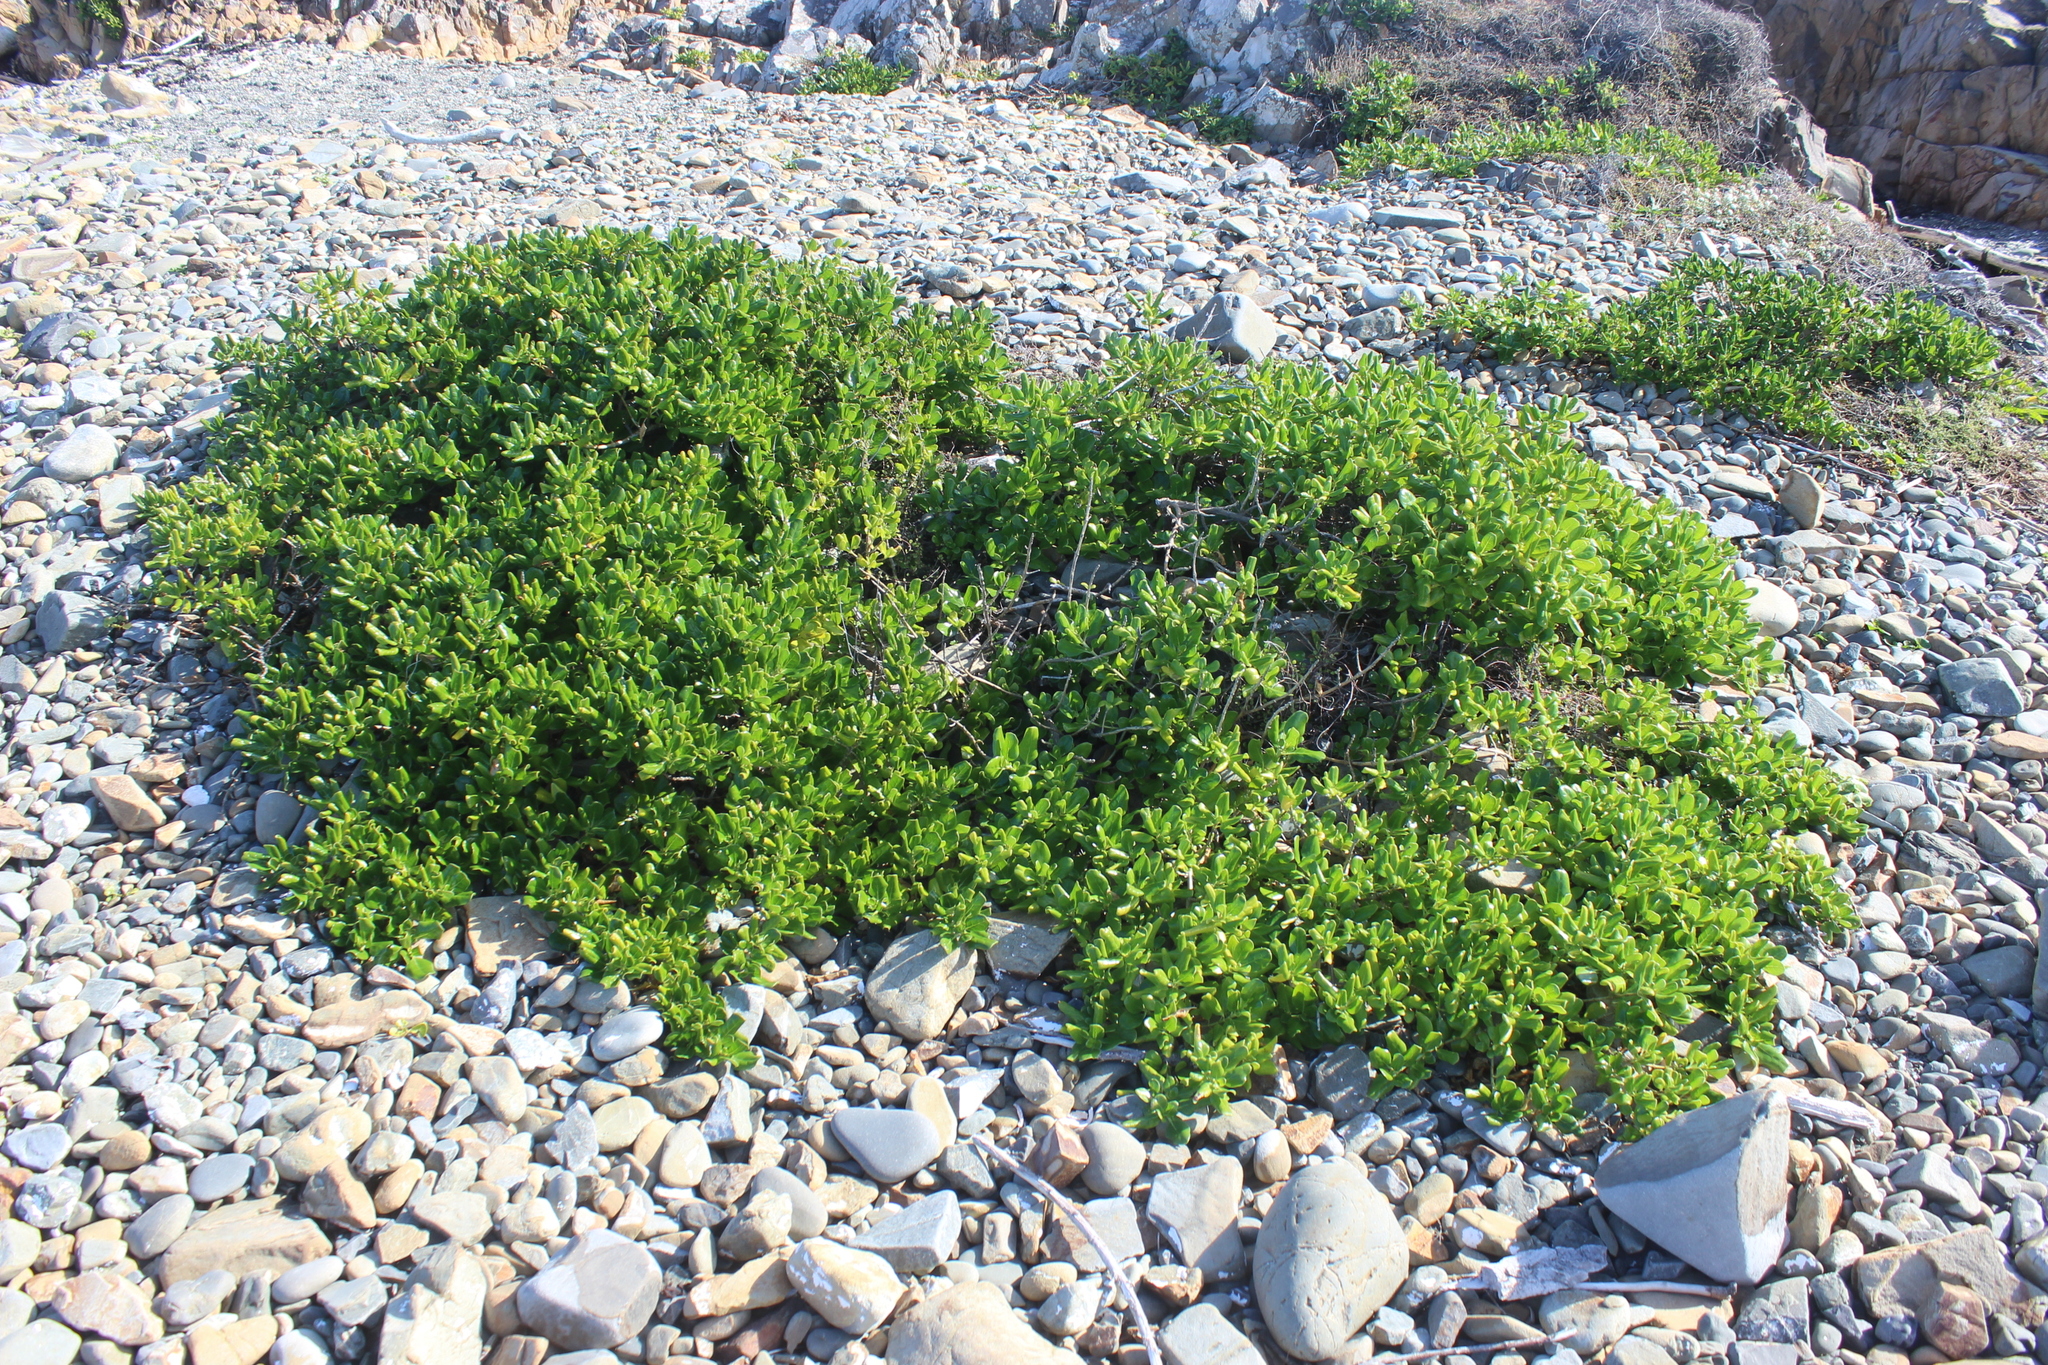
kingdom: Plantae
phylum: Tracheophyta
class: Magnoliopsida
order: Gentianales
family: Rubiaceae
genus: Coprosma
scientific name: Coprosma repens
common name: Tree bedstraw
